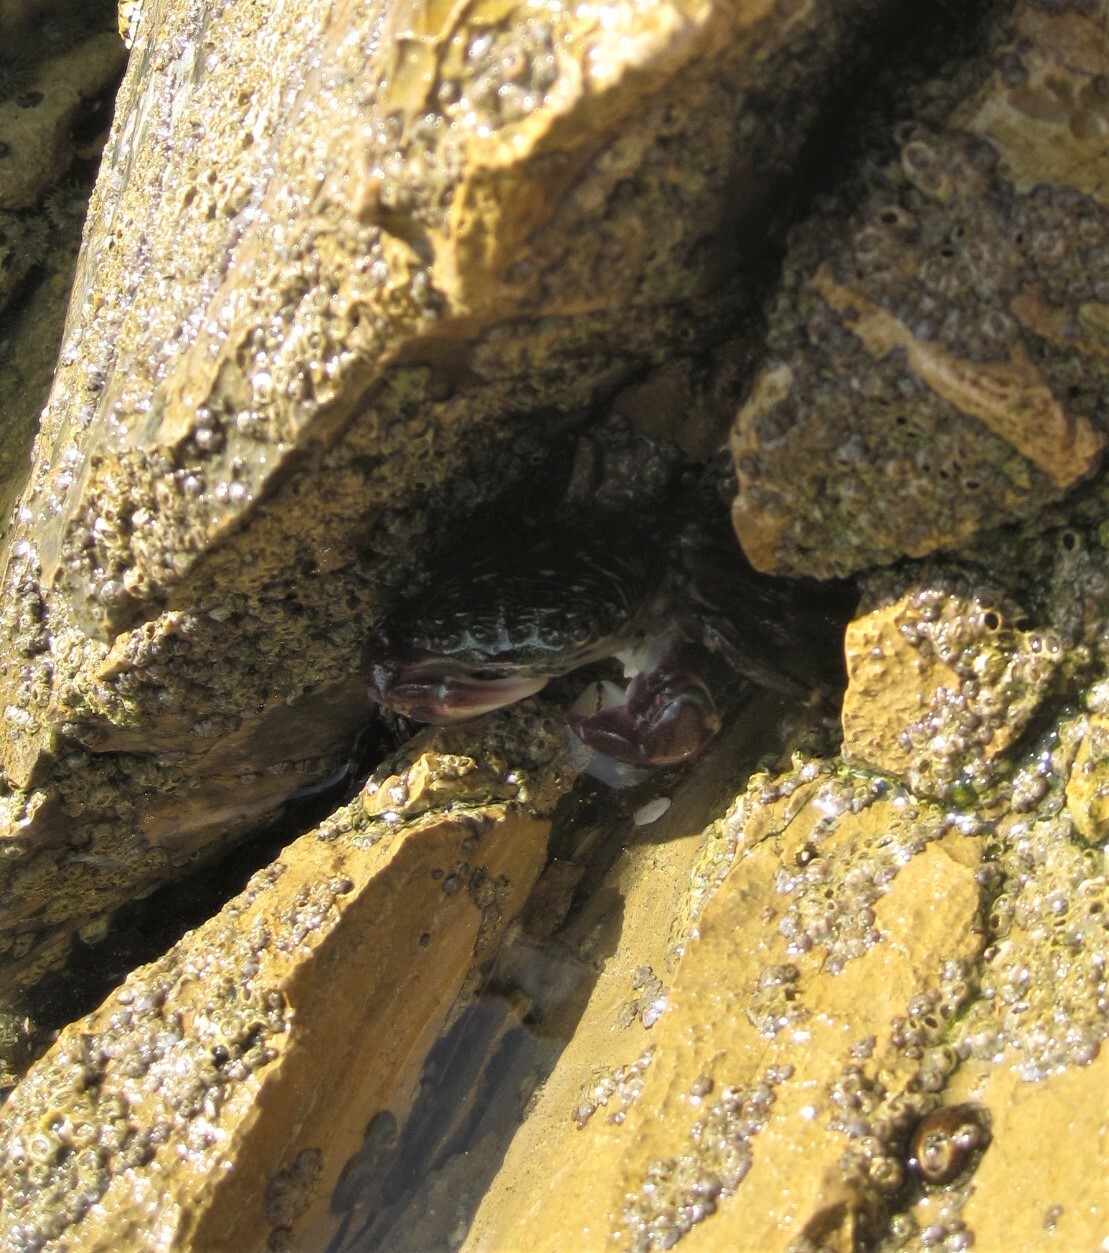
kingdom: Animalia
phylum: Arthropoda
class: Malacostraca
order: Decapoda
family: Grapsidae
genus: Pachygrapsus
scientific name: Pachygrapsus crassipes
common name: Striped shore crab
